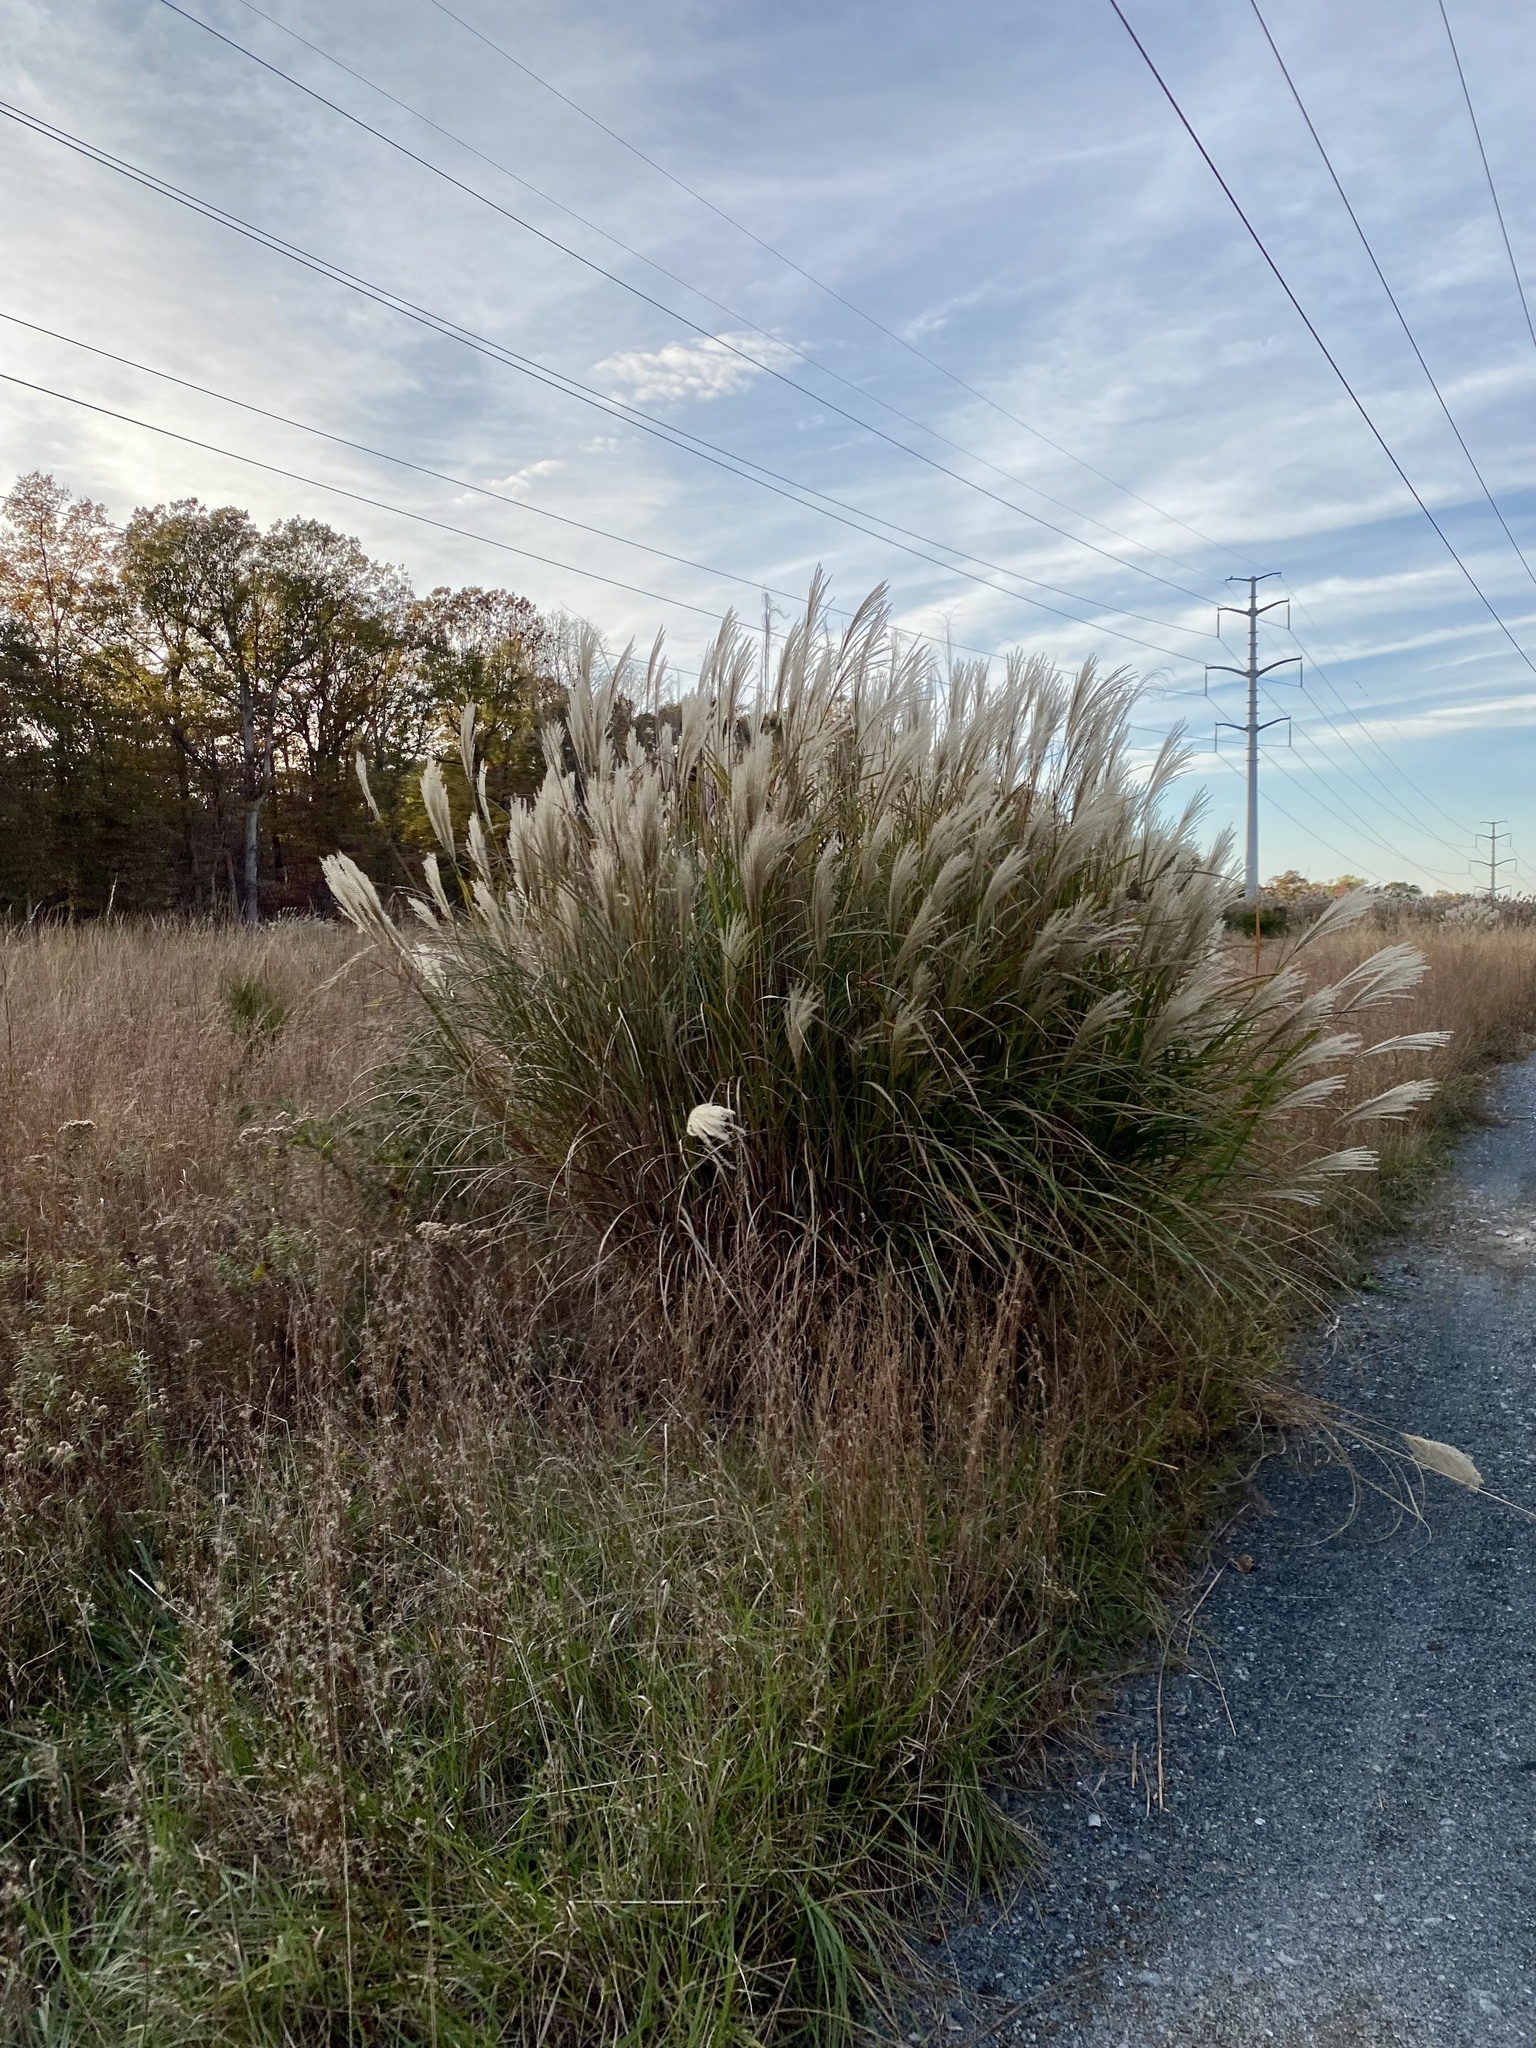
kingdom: Plantae
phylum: Tracheophyta
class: Liliopsida
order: Poales
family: Poaceae
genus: Miscanthus
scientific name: Miscanthus sinensis
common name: Chinese silvergrass
